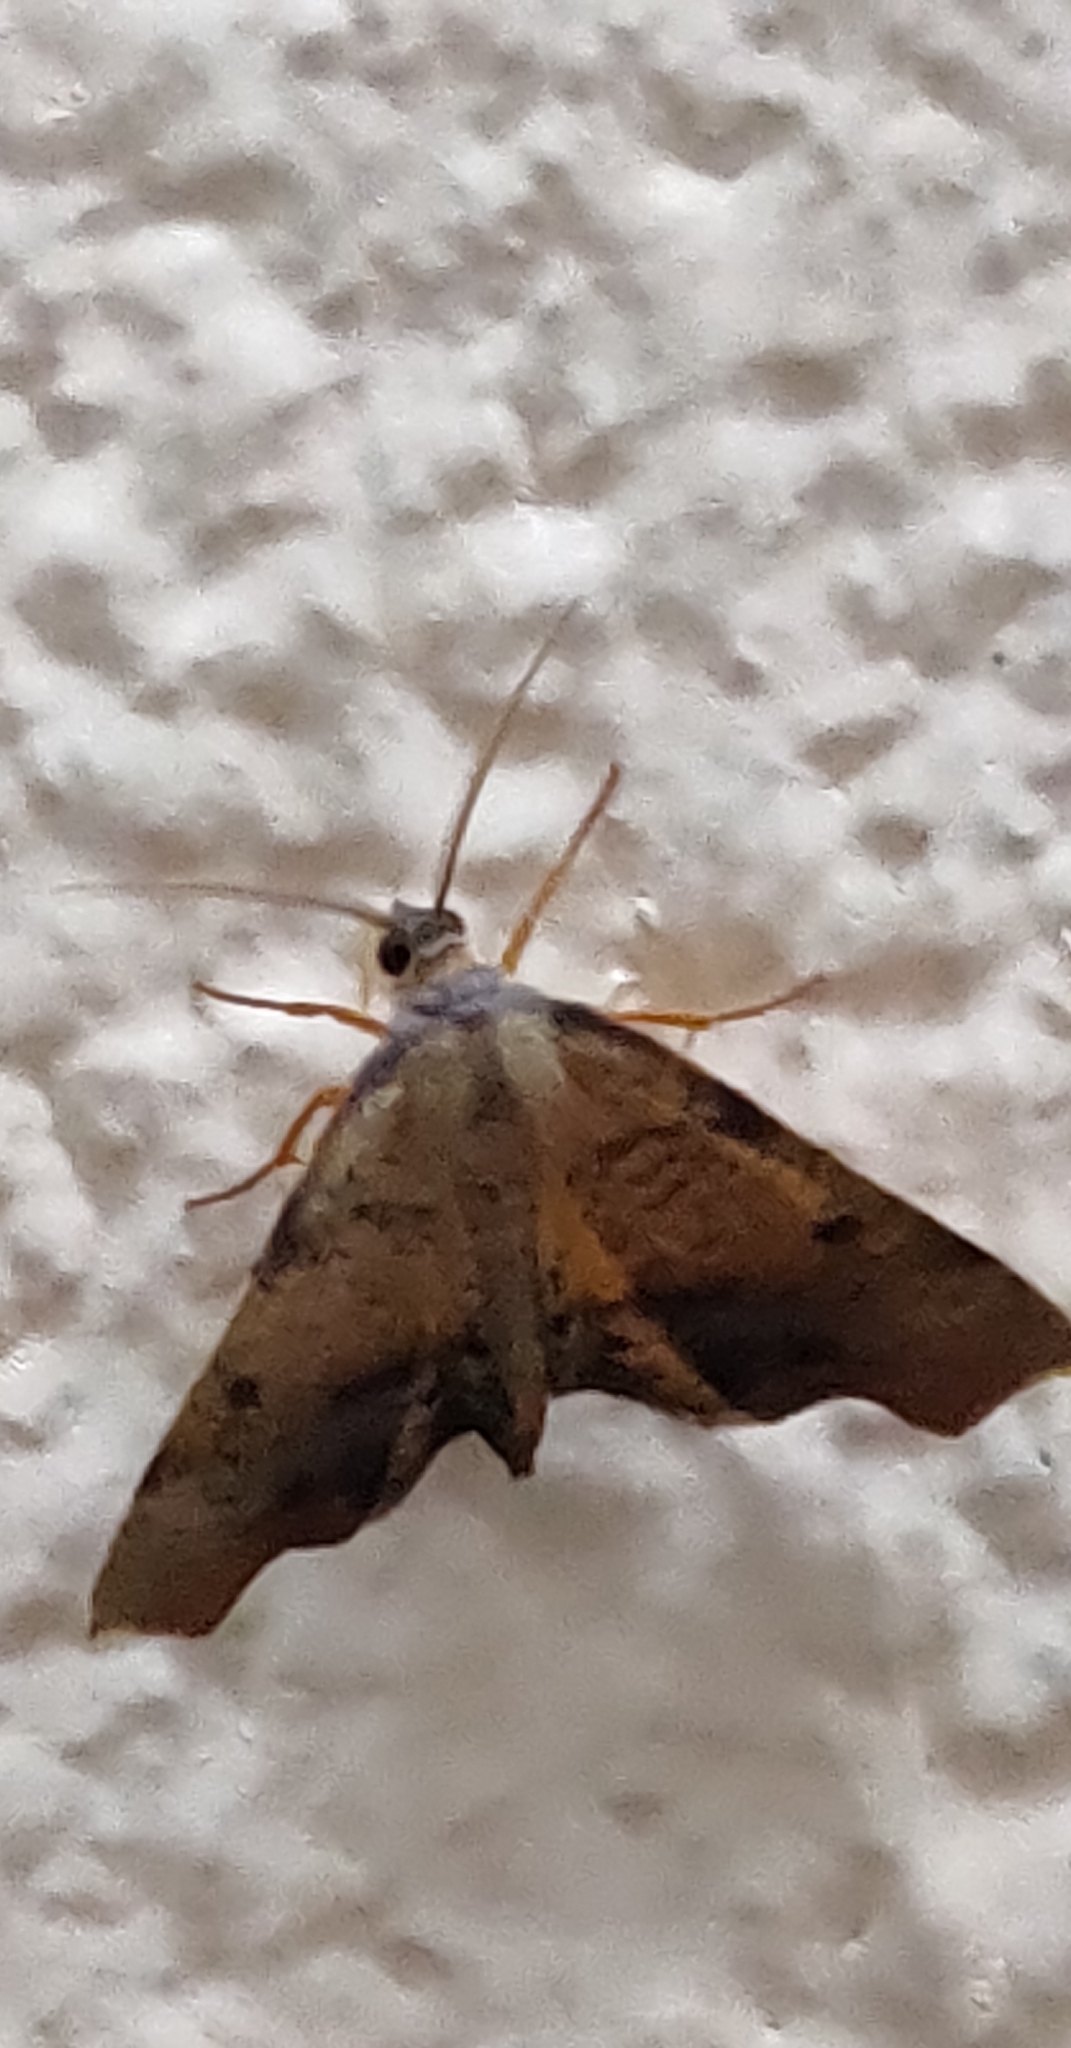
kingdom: Animalia
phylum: Arthropoda
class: Insecta
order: Lepidoptera
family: Geometridae
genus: Plagodis
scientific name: Plagodis fervidaria
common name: Fervid plagodis
